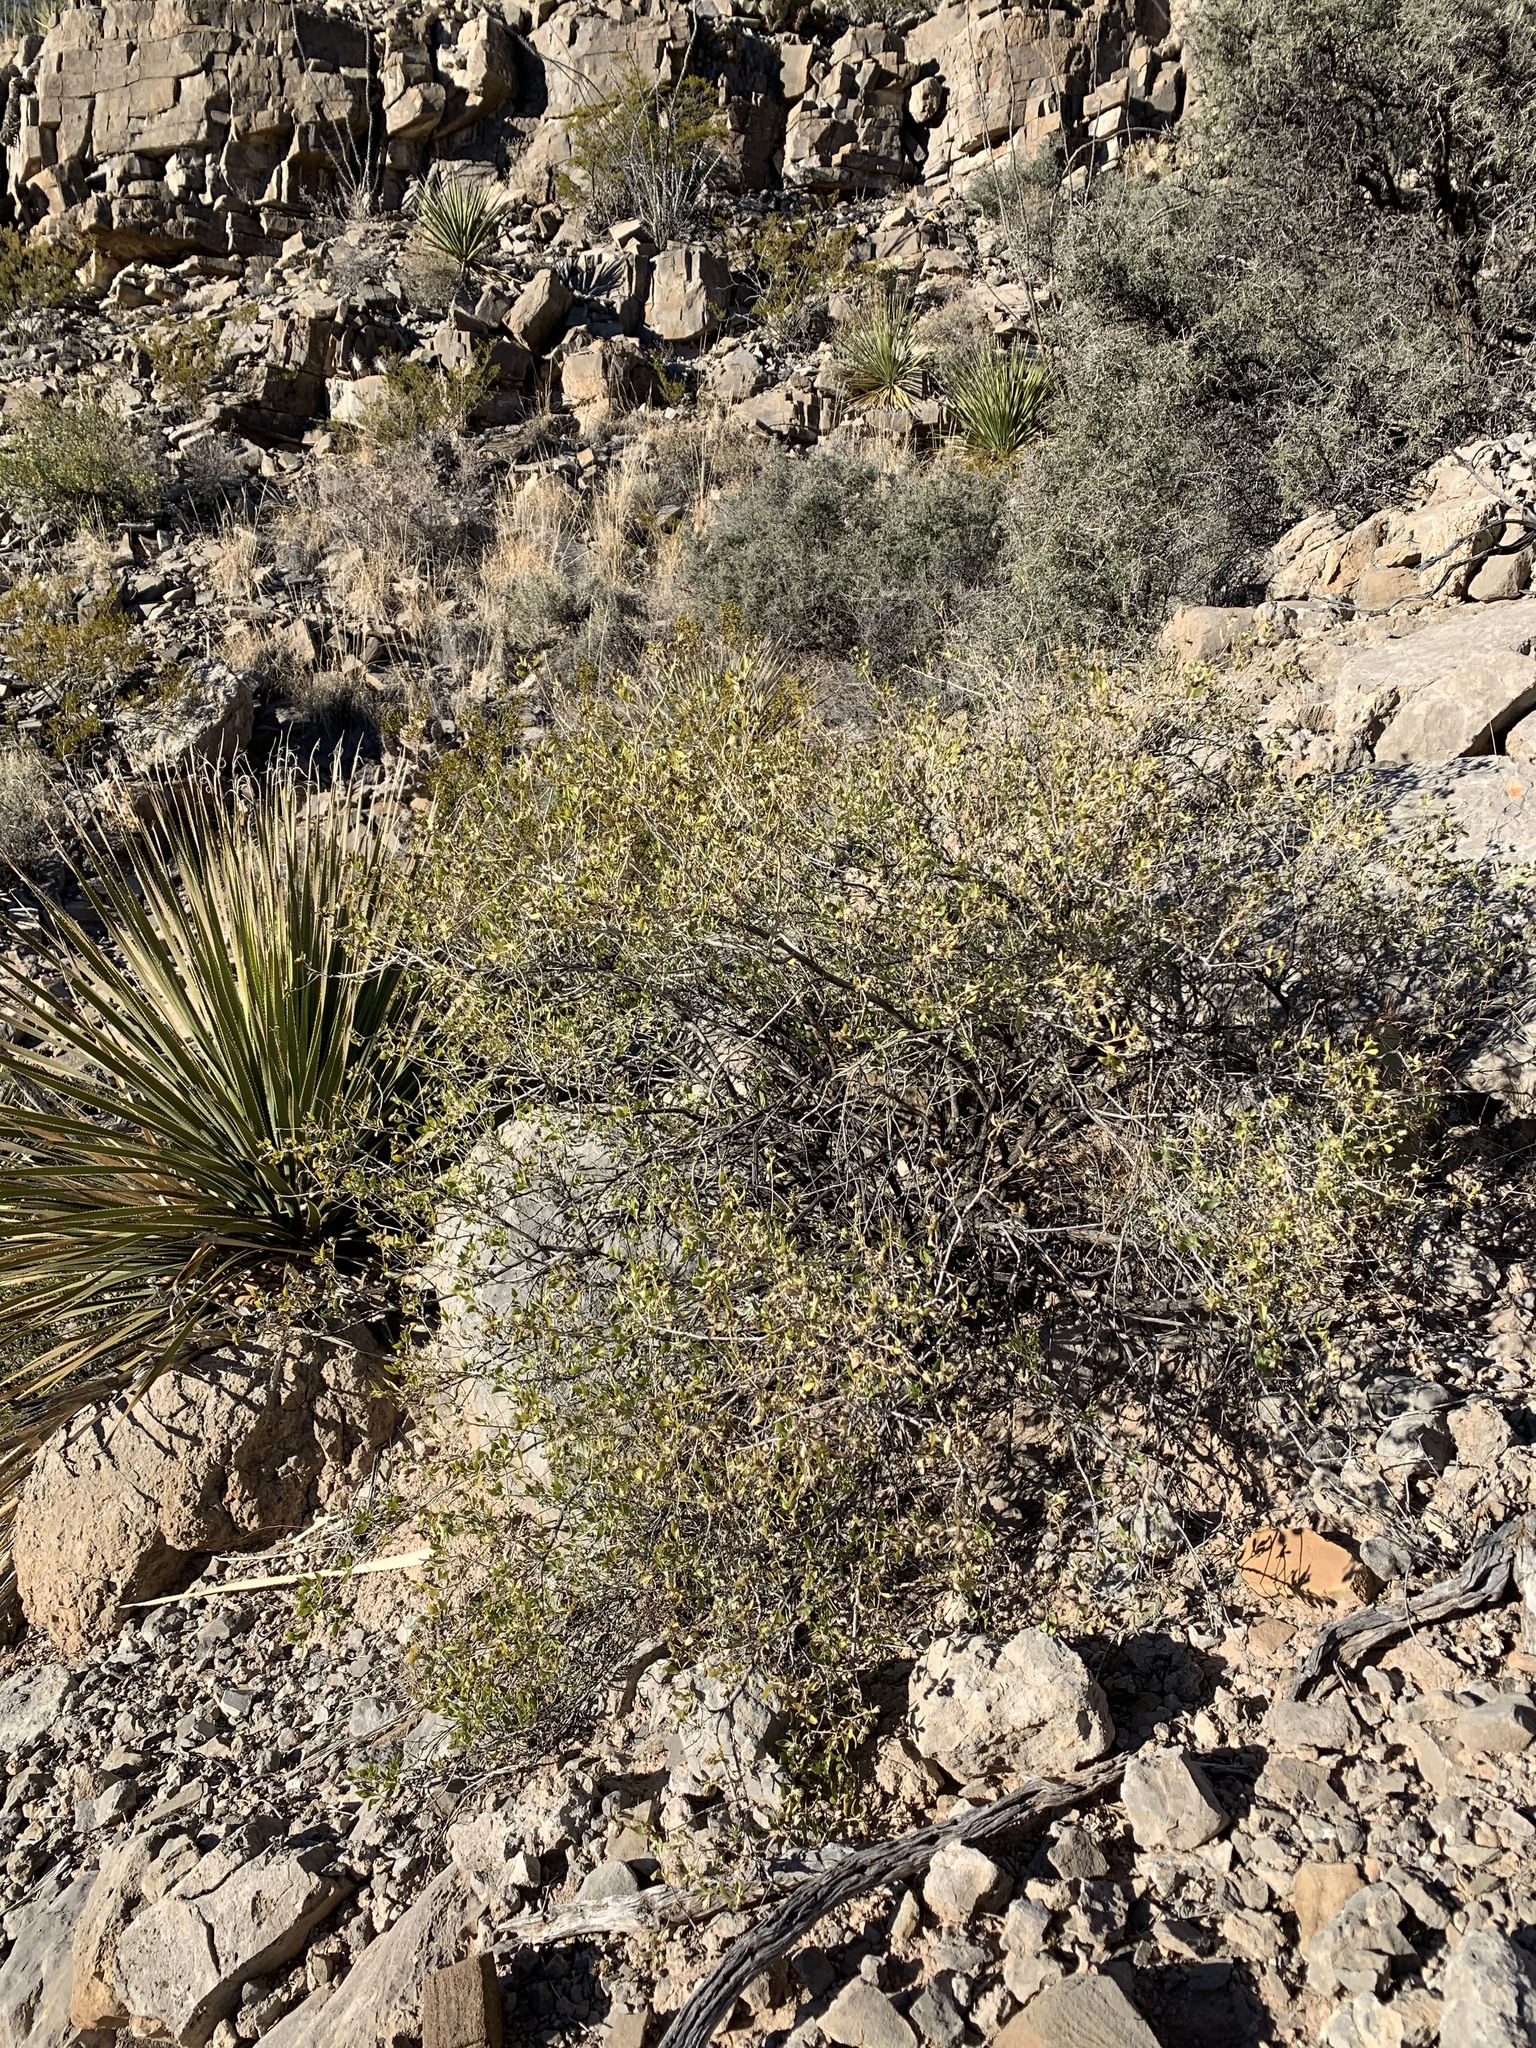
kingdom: Plantae
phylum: Tracheophyta
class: Magnoliopsida
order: Asterales
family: Asteraceae
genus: Flourensia
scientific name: Flourensia cernua
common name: Varnishbush
